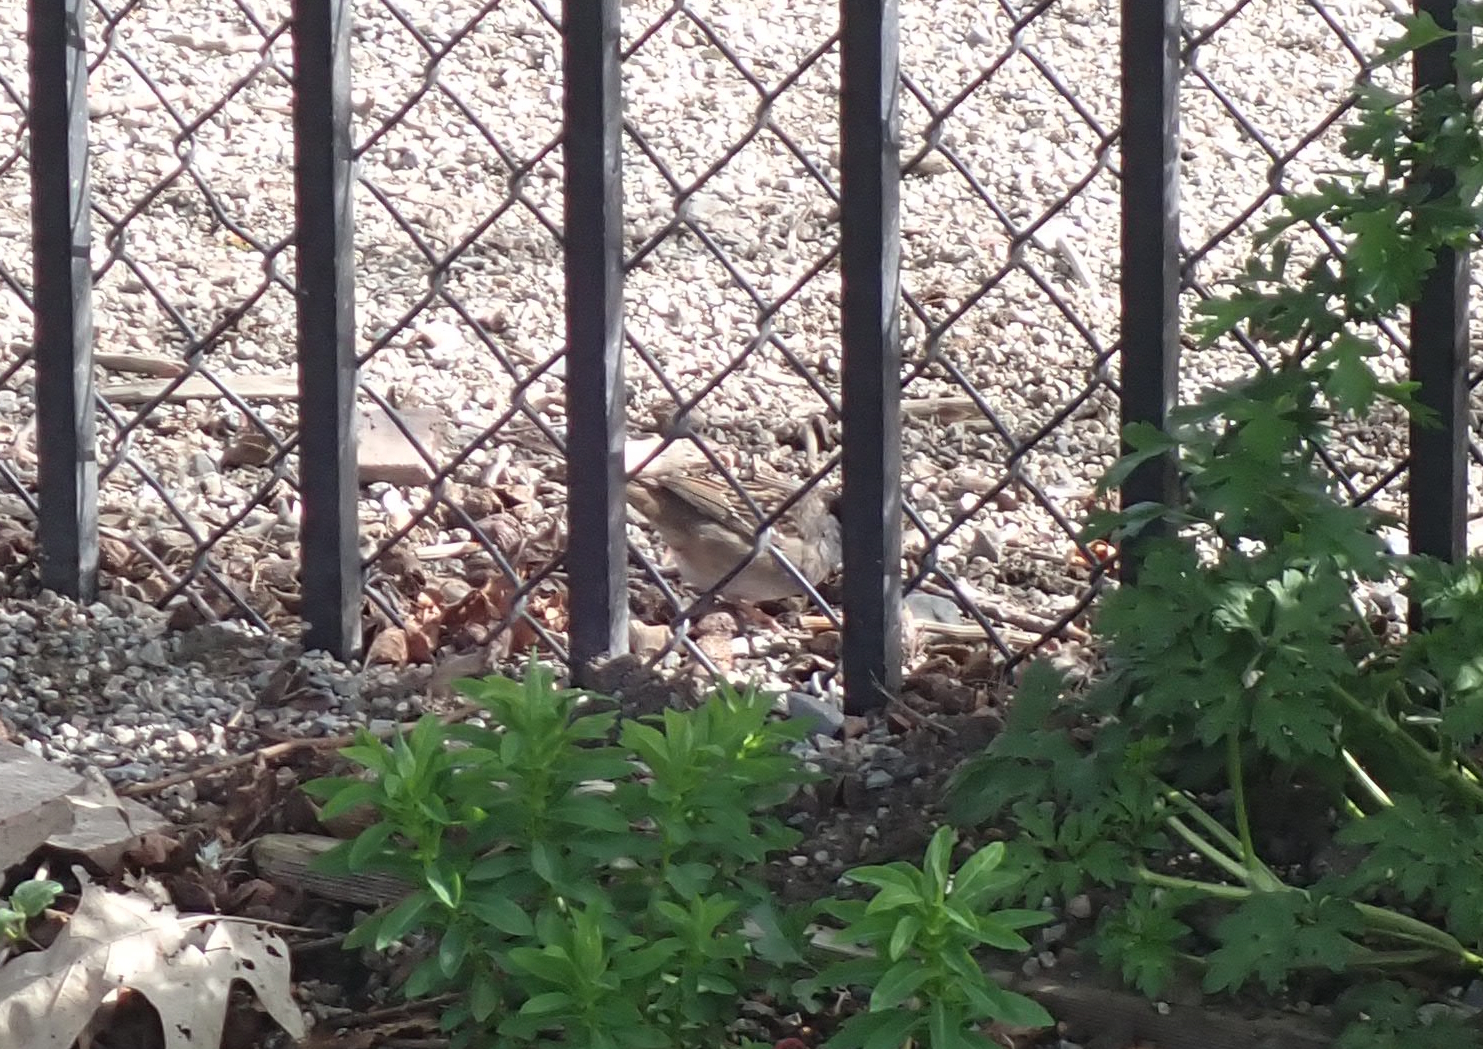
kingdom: Animalia
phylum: Chordata
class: Aves
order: Passeriformes
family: Passerellidae
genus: Zonotrichia
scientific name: Zonotrichia atricapilla
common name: Golden-crowned sparrow
